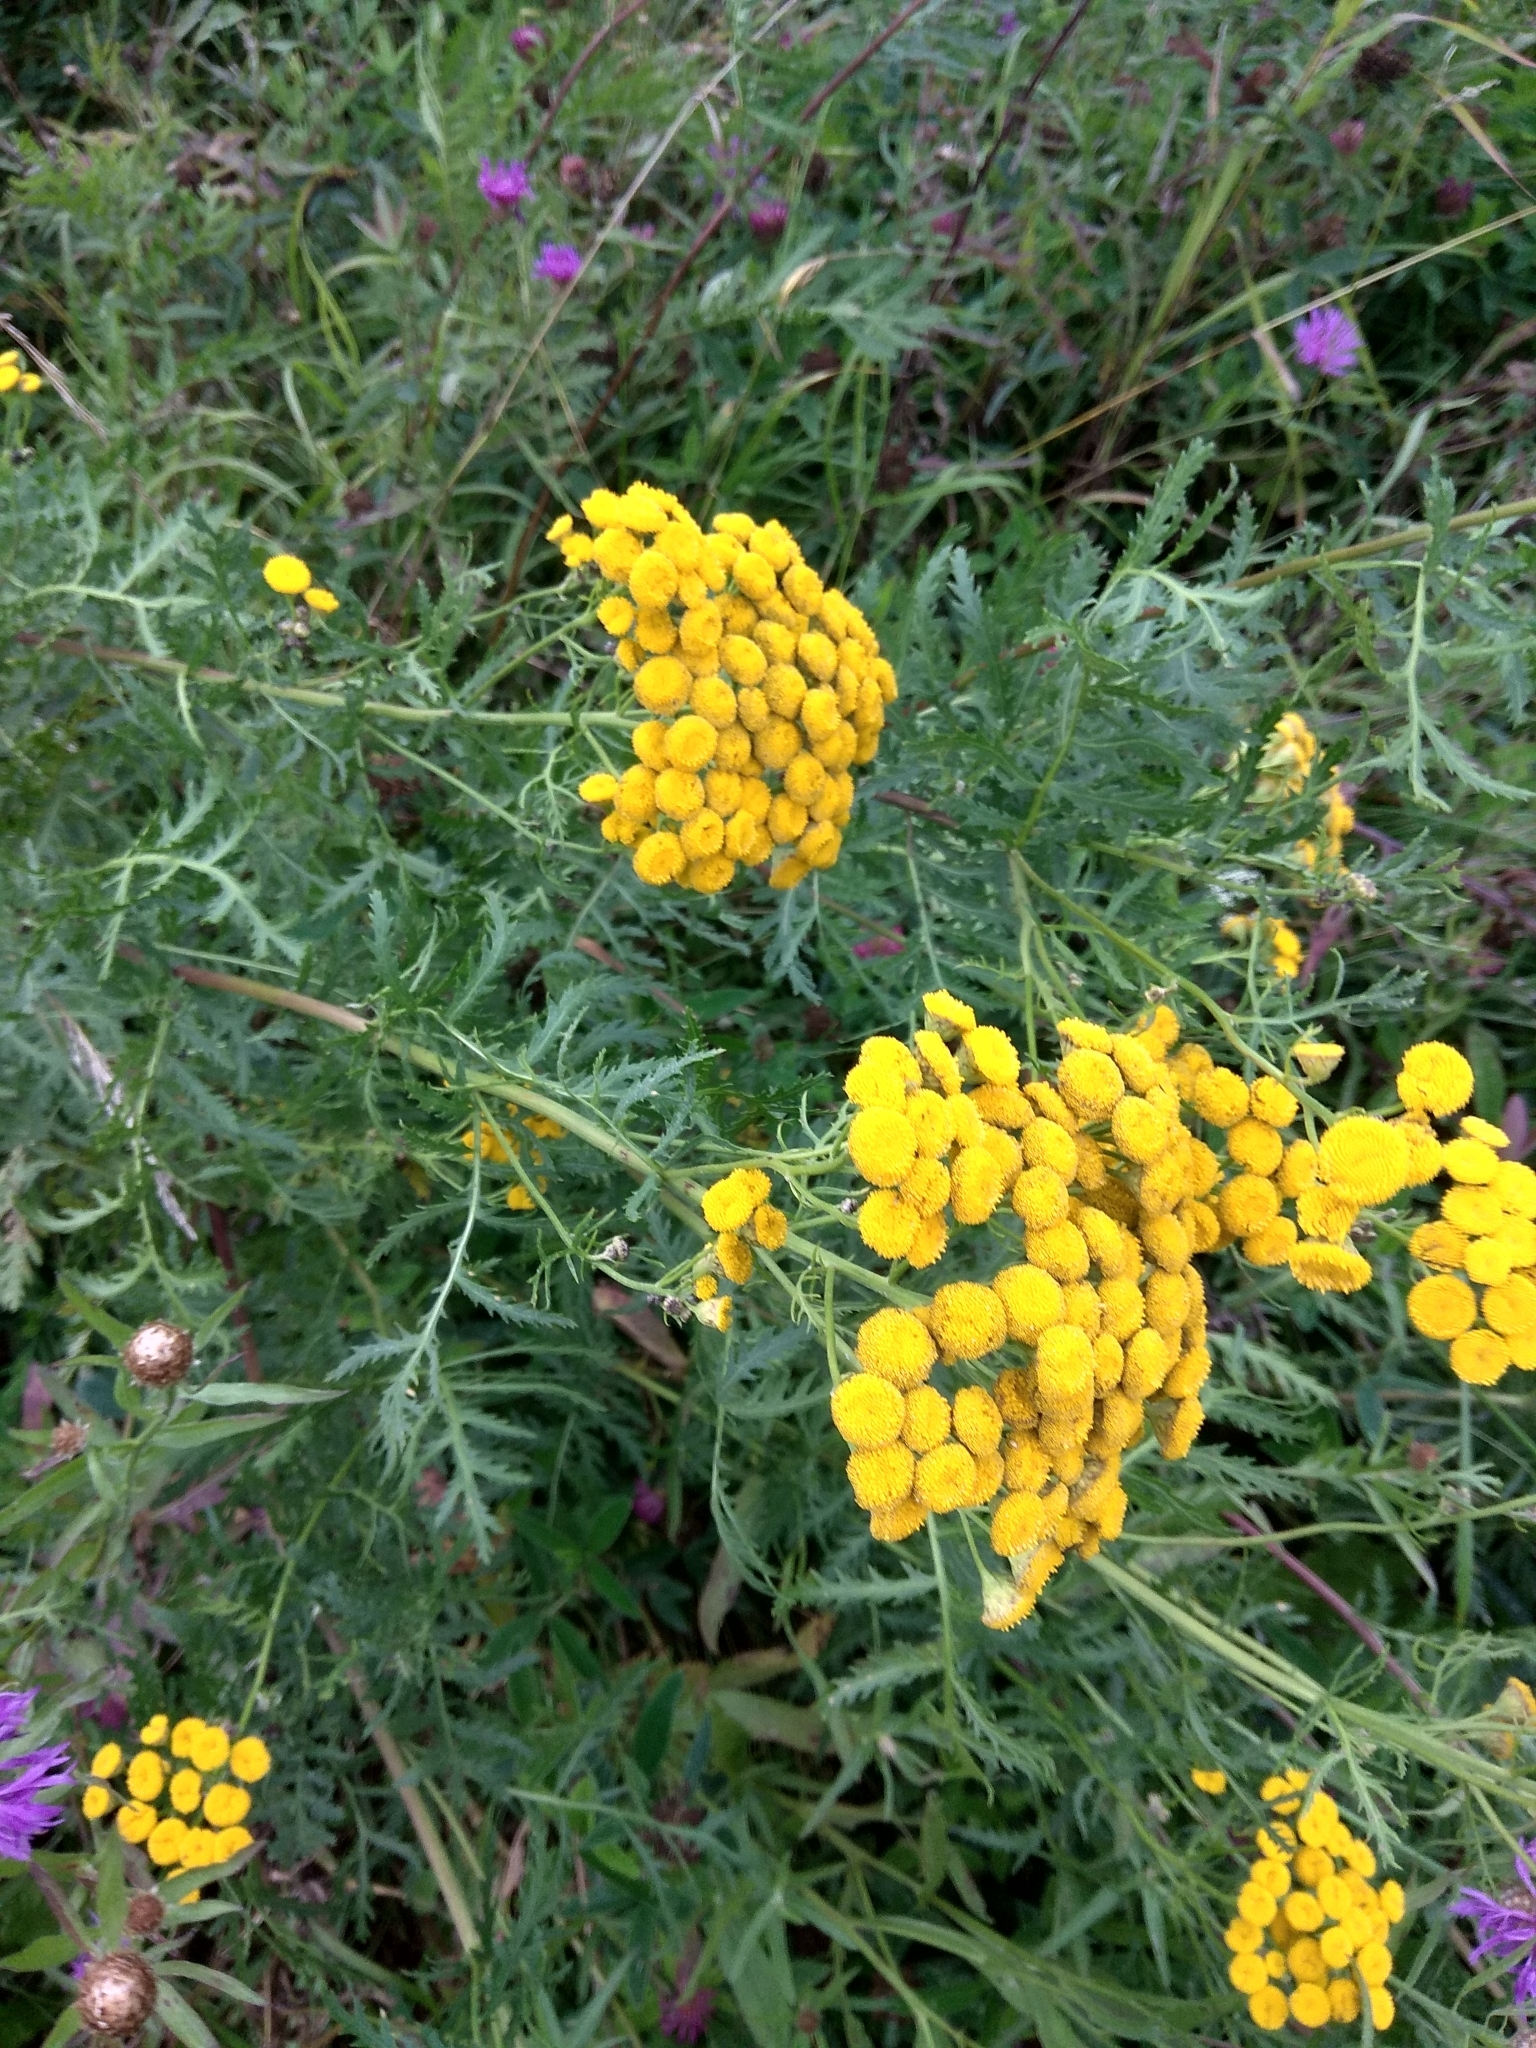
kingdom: Plantae
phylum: Tracheophyta
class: Magnoliopsida
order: Asterales
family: Asteraceae
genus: Tanacetum
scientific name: Tanacetum vulgare
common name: Common tansy
